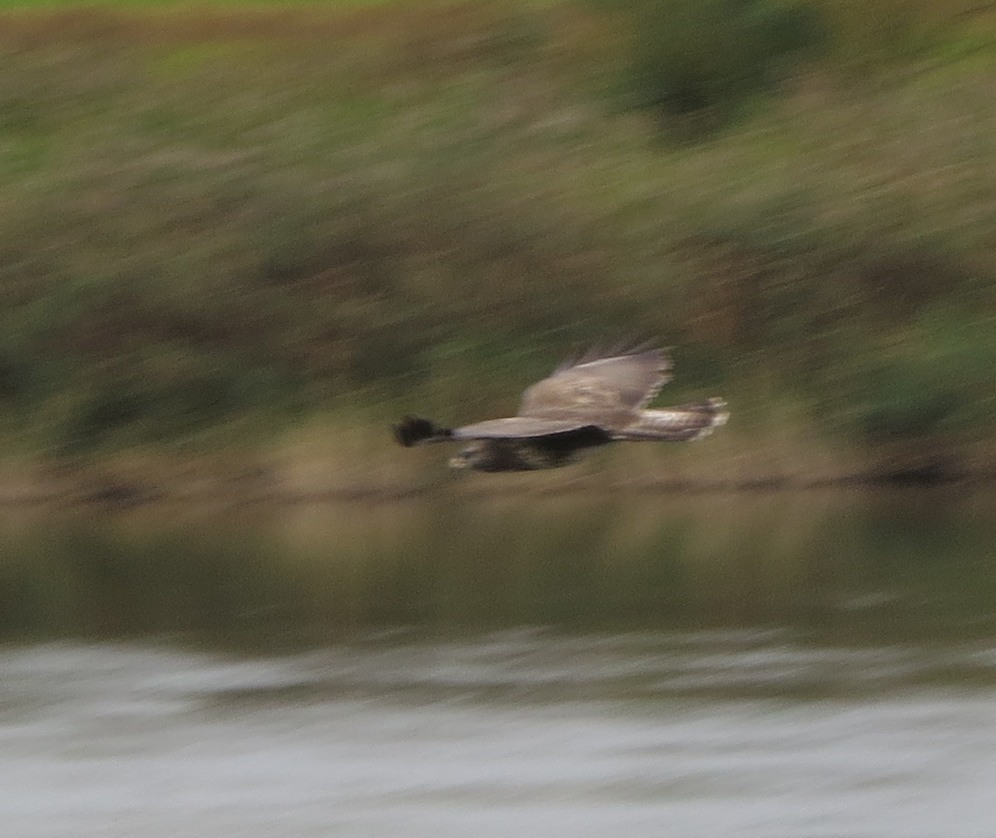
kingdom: Animalia
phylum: Chordata
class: Aves
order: Accipitriformes
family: Accipitridae
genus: Buteo
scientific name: Buteo buteo
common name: Common buzzard
